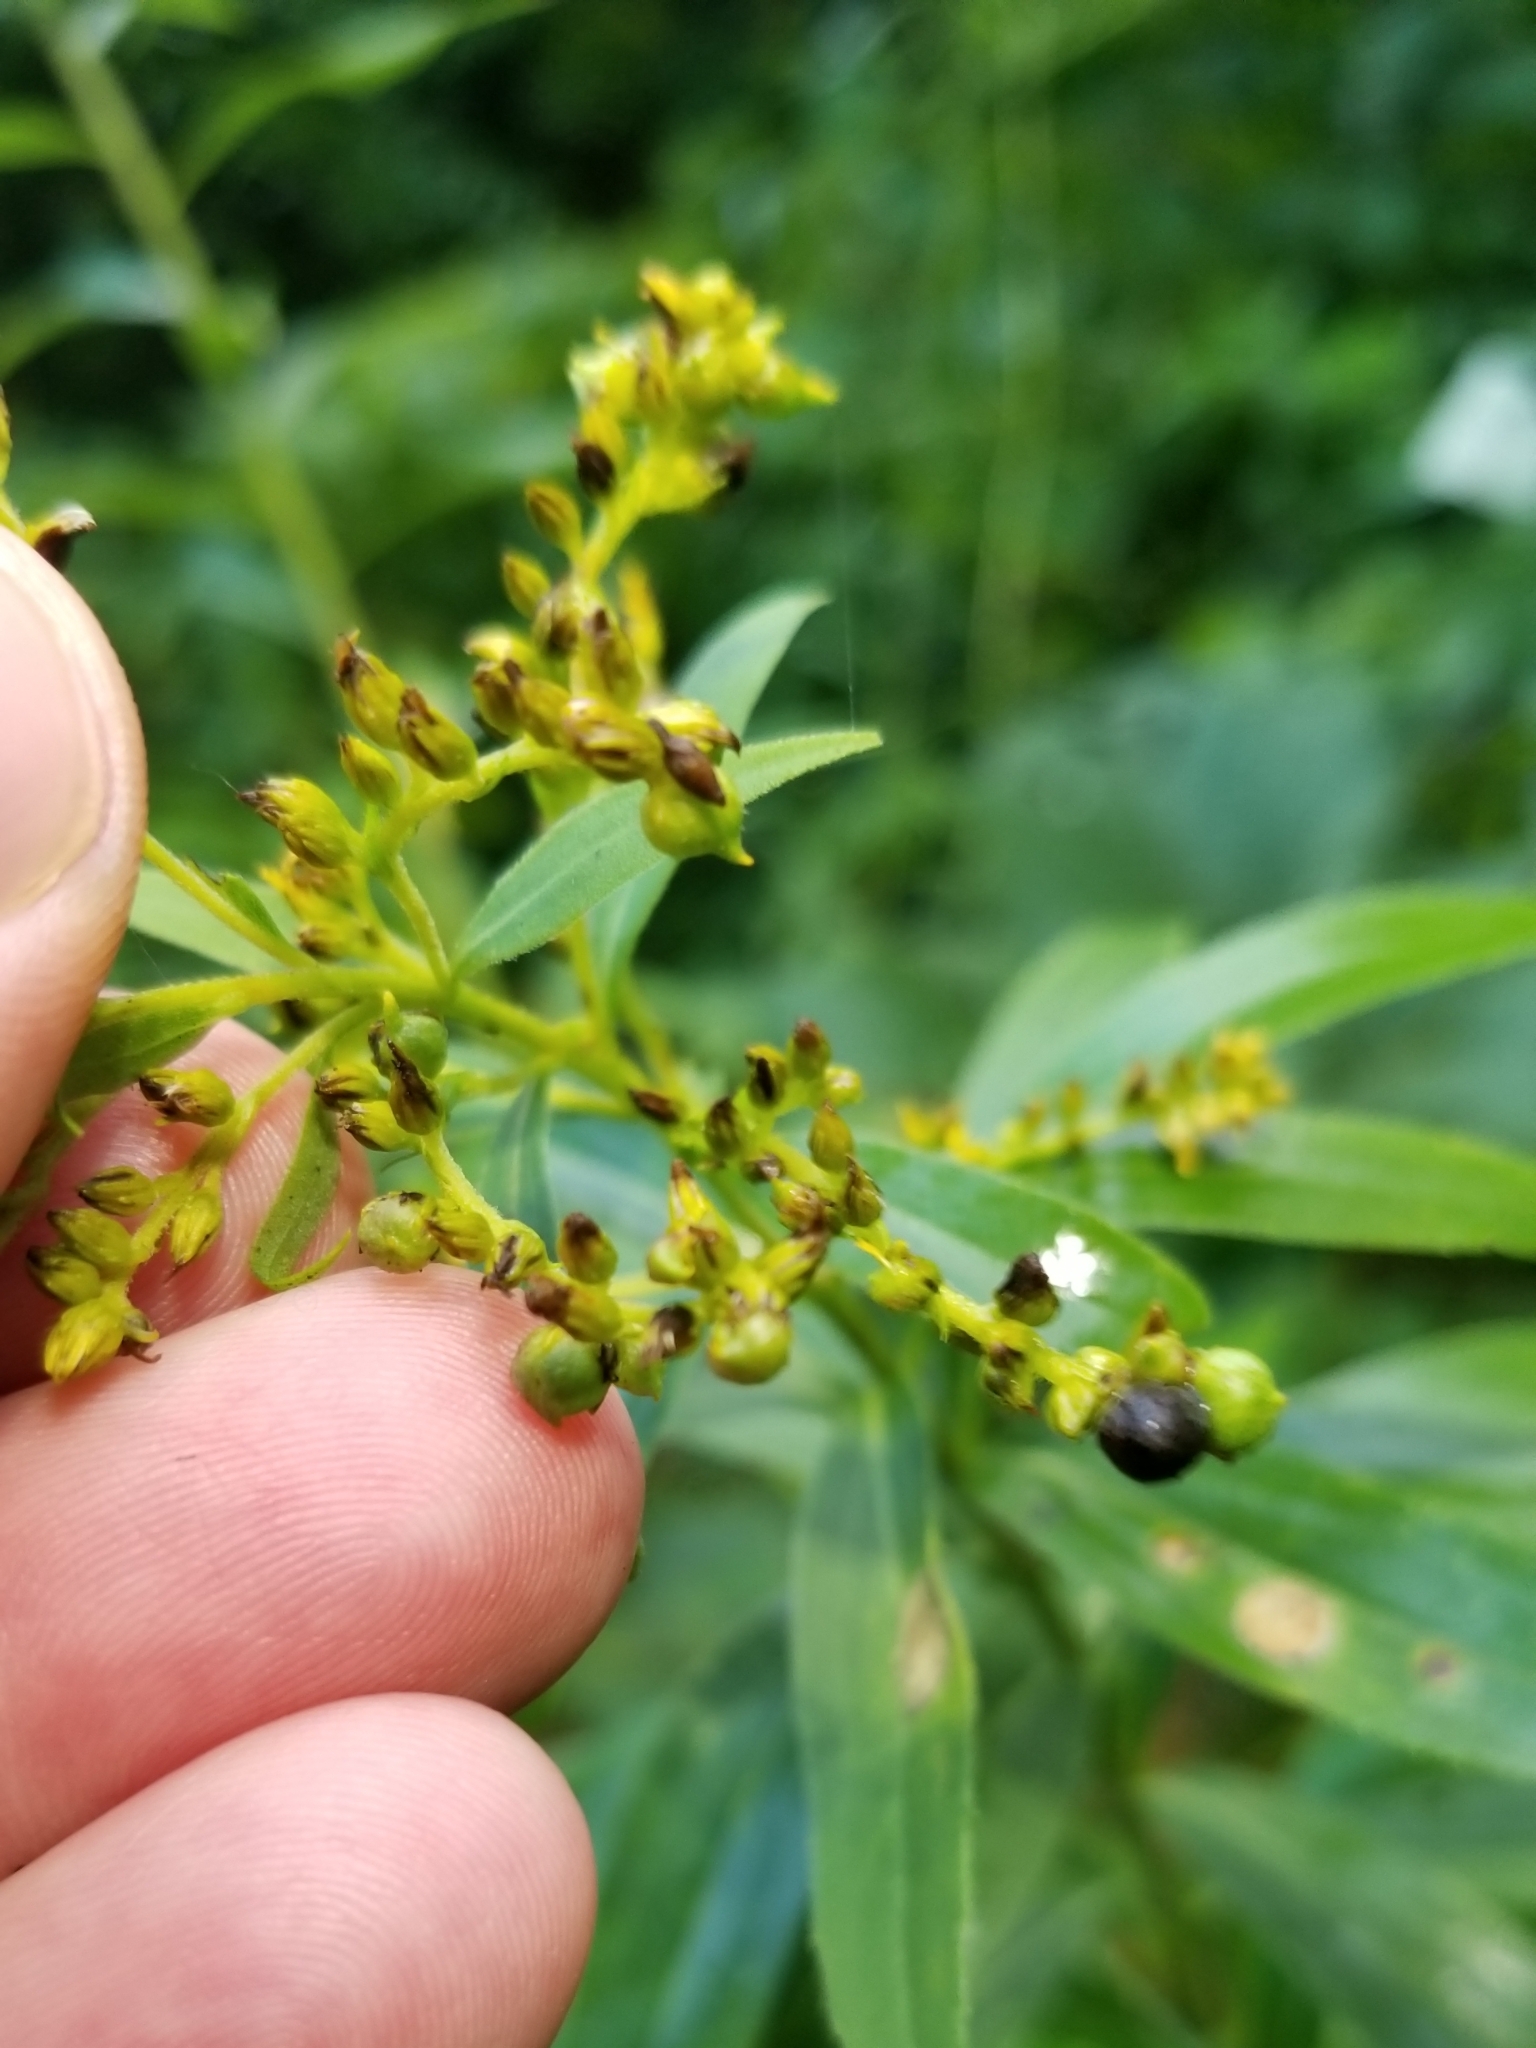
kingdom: Animalia
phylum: Arthropoda
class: Insecta
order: Diptera
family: Cecidomyiidae
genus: Schizomyia
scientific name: Schizomyia racemicola
